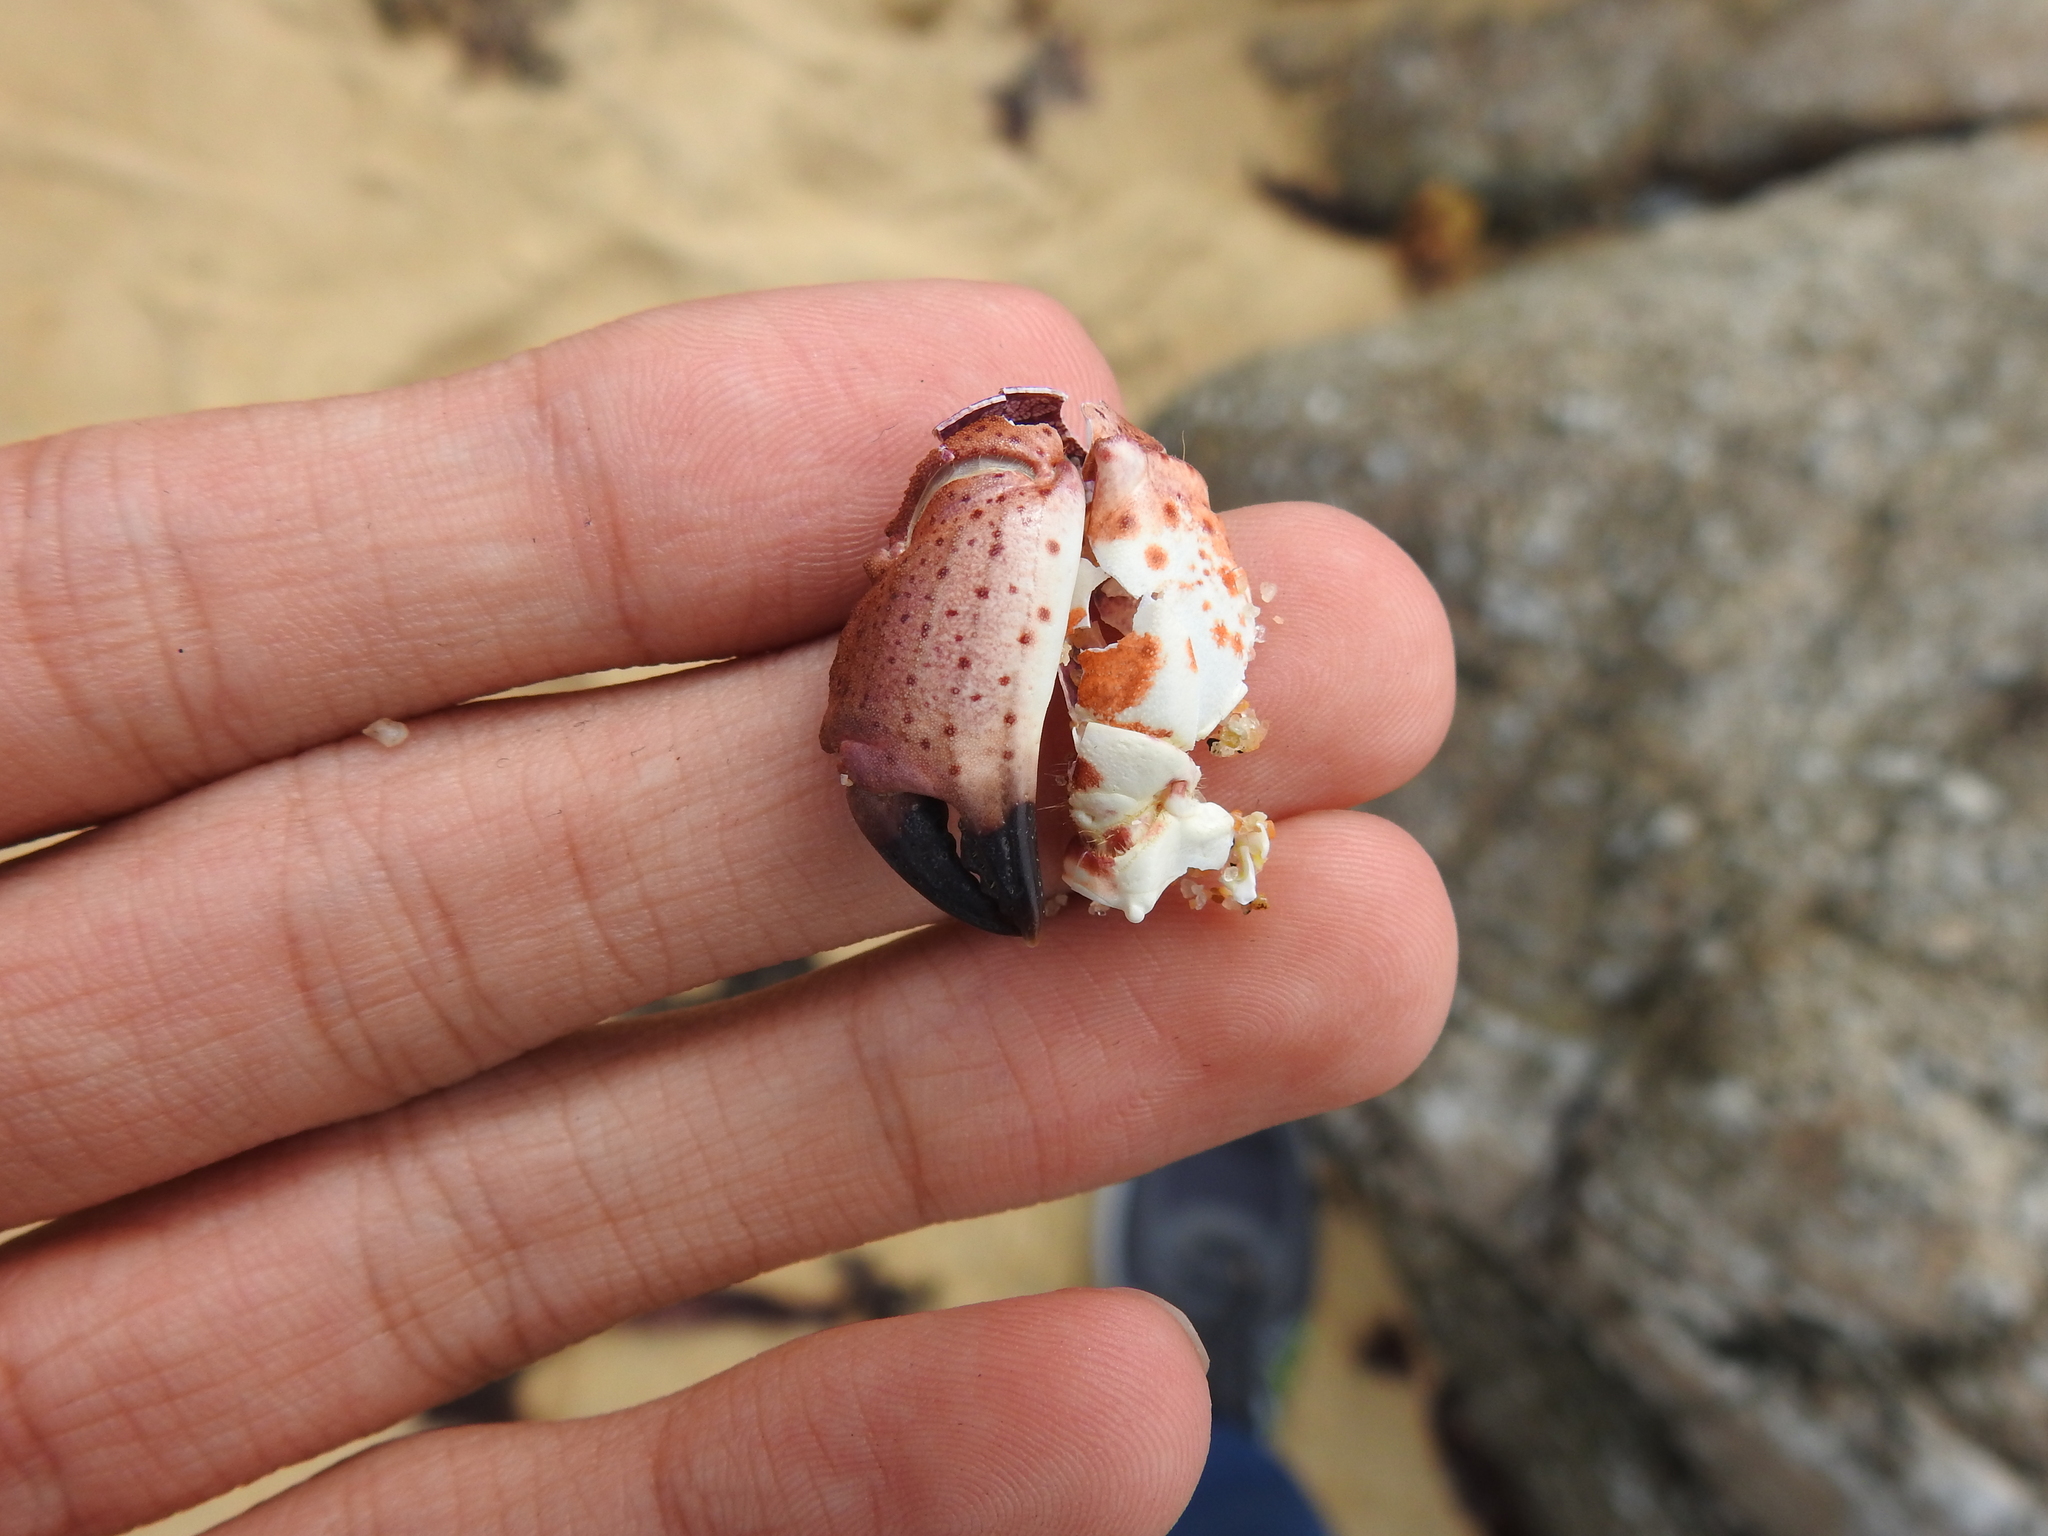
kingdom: Animalia
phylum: Arthropoda
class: Malacostraca
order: Decapoda
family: Cancridae
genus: Romaleon
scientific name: Romaleon antennarium
